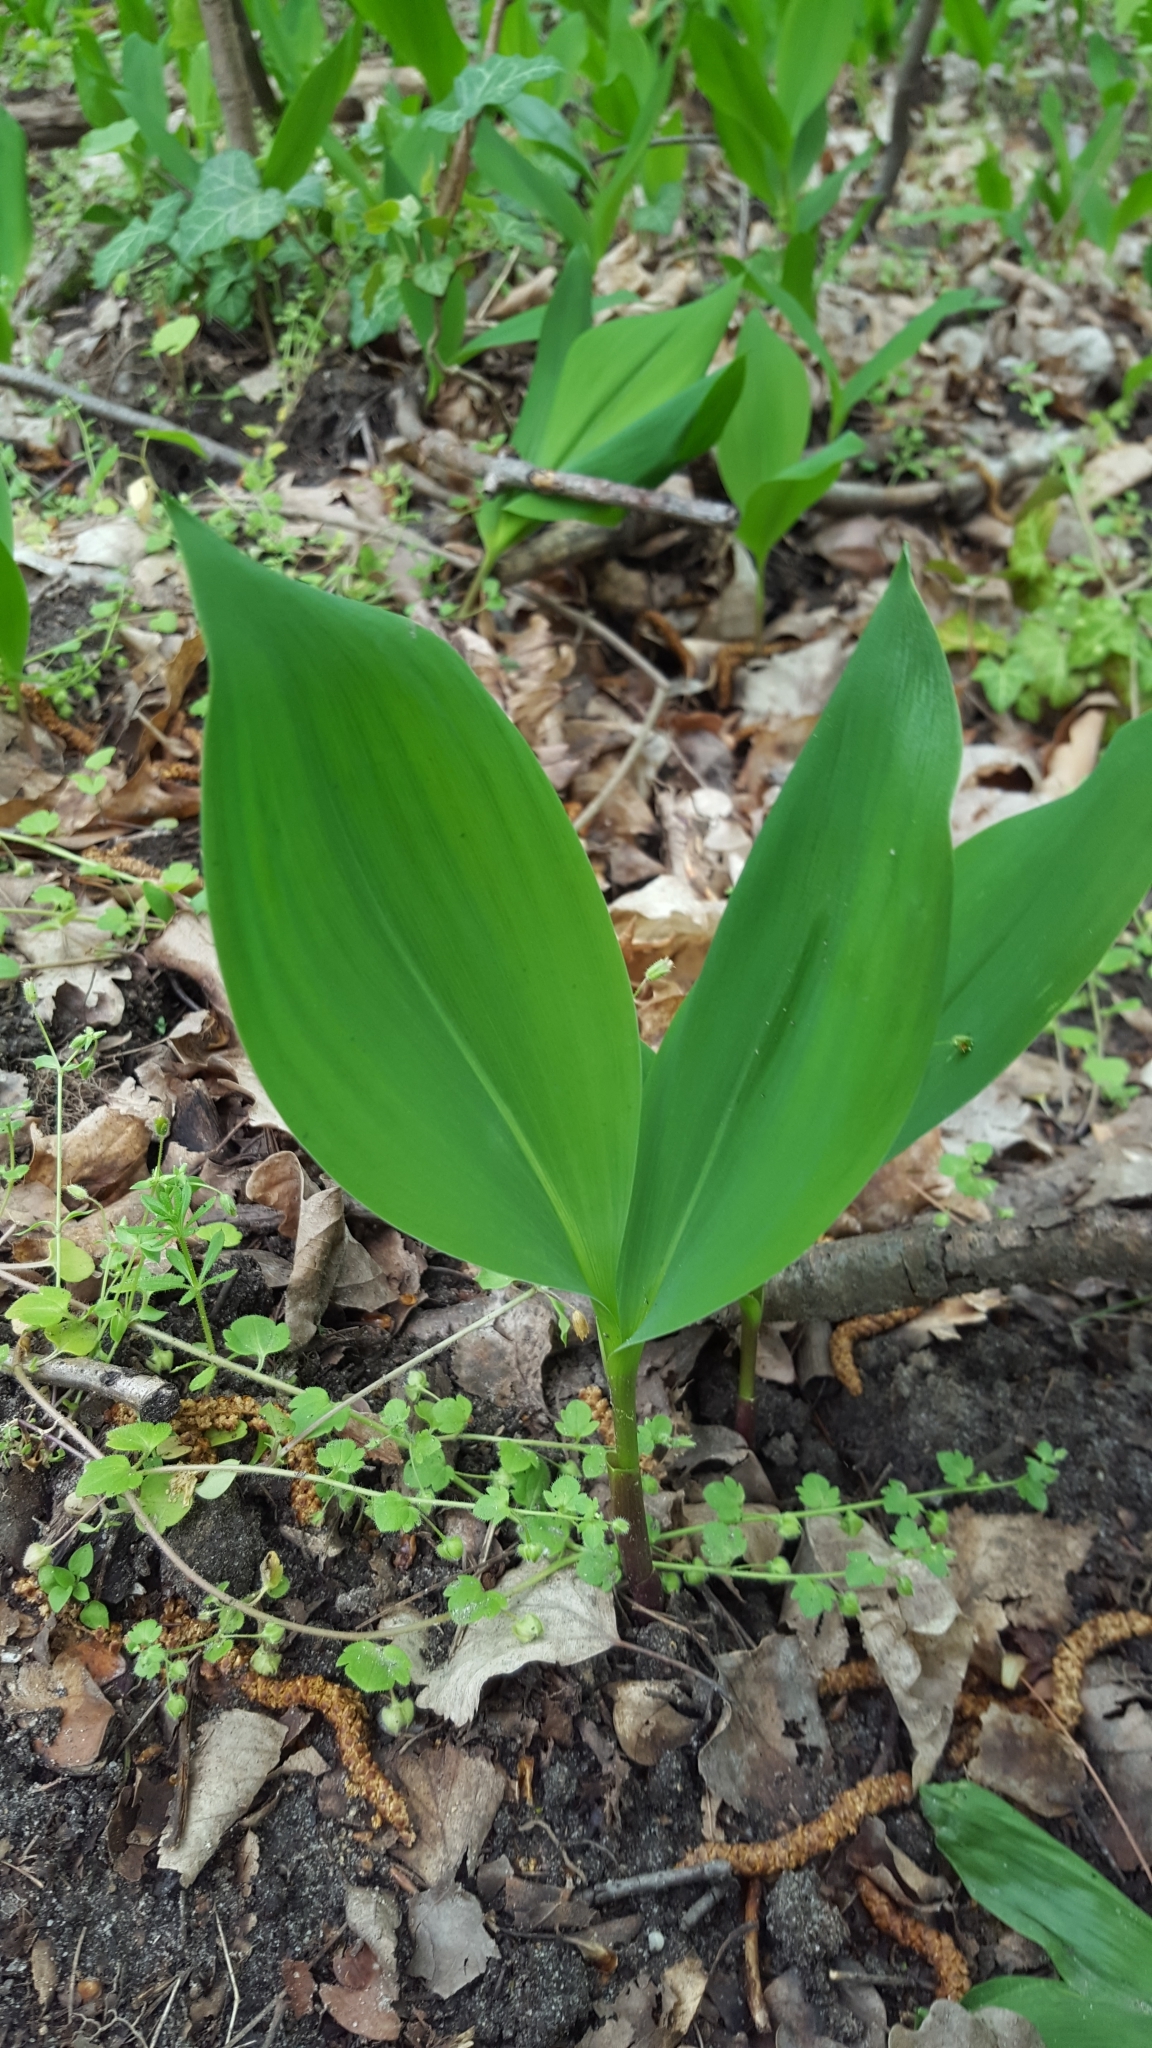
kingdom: Plantae
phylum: Tracheophyta
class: Liliopsida
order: Asparagales
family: Asparagaceae
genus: Convallaria
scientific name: Convallaria majalis
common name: Lily-of-the-valley
